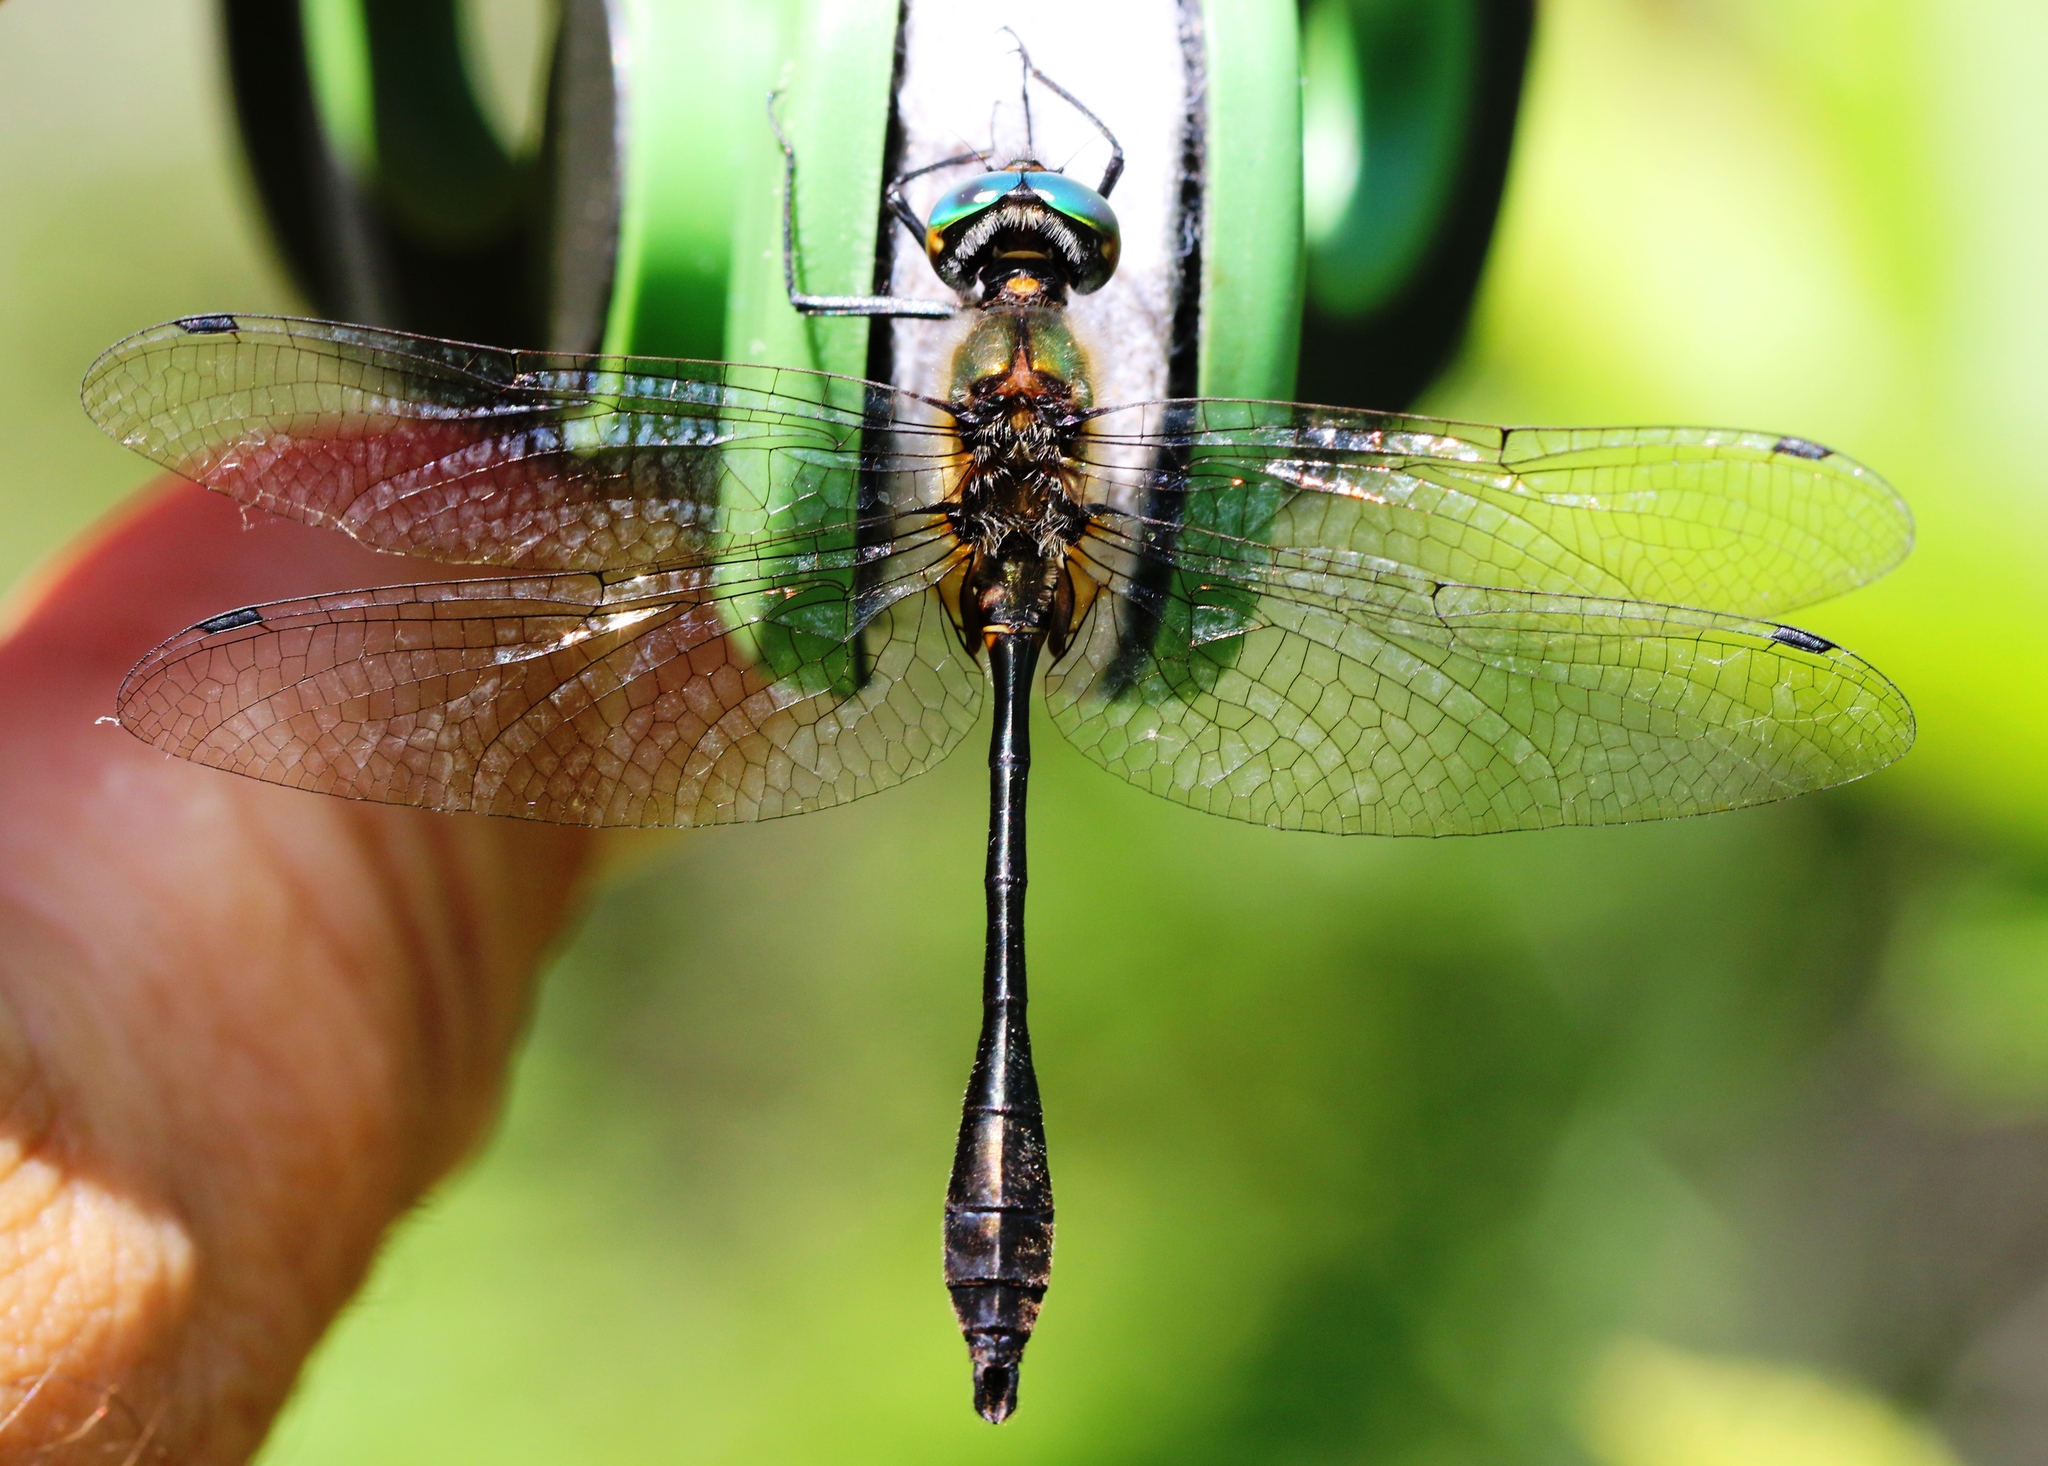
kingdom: Animalia
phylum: Arthropoda
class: Insecta
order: Odonata
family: Corduliidae
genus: Dorocordulia
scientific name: Dorocordulia libera
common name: Racket-tailed emerald
